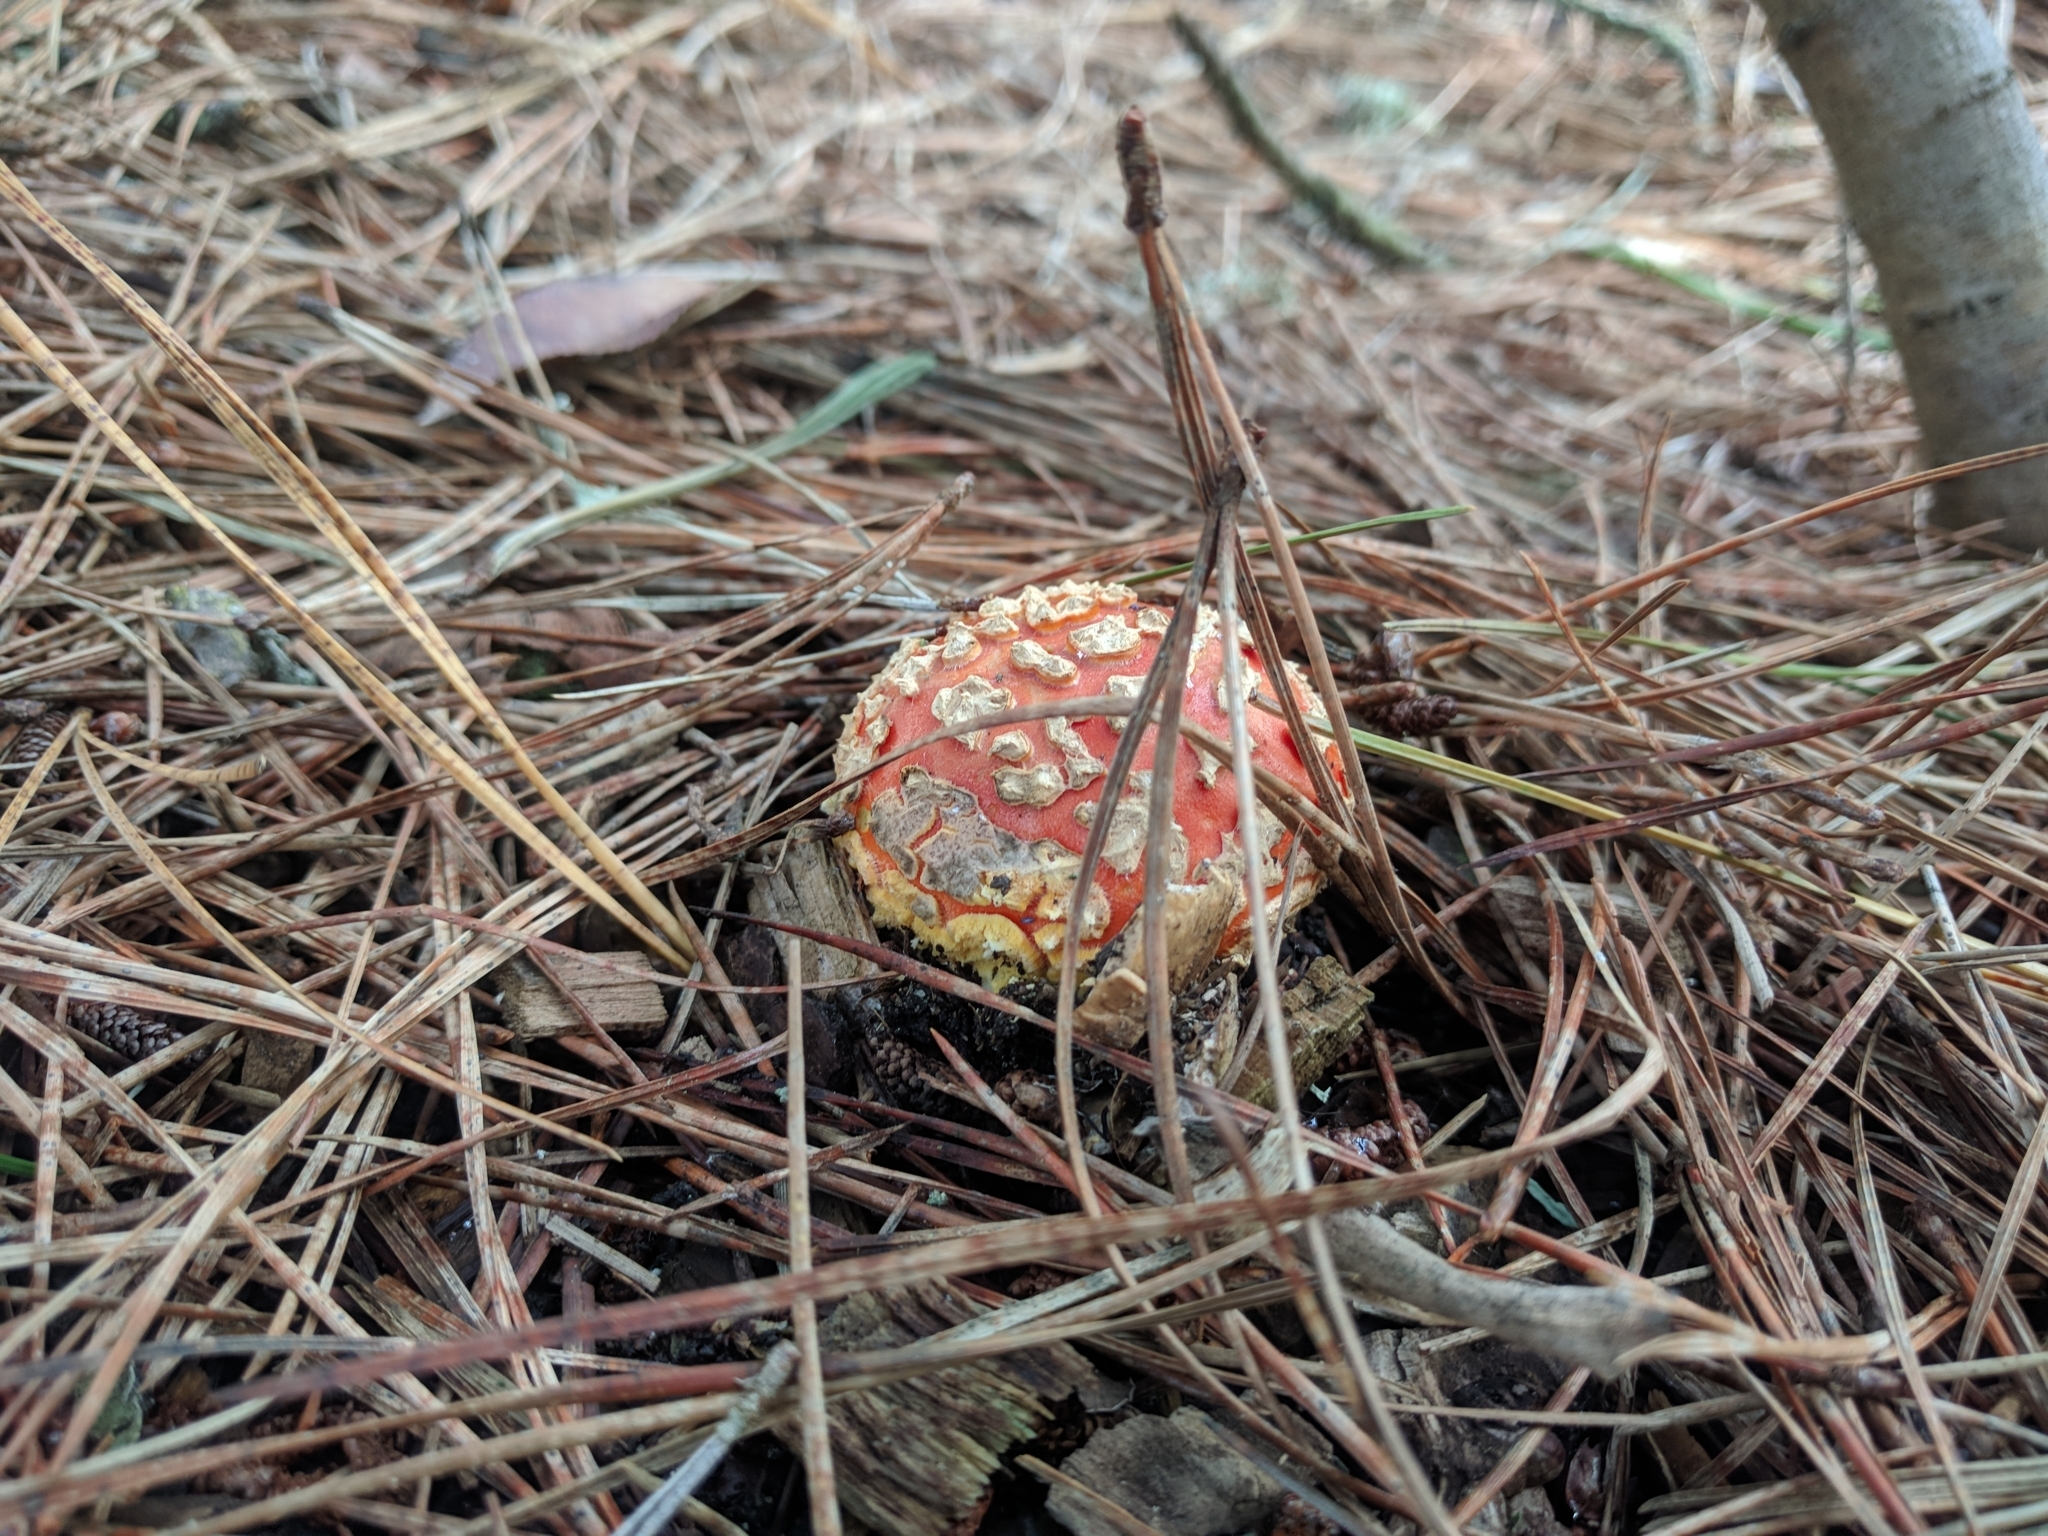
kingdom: Fungi
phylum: Basidiomycota
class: Agaricomycetes
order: Agaricales
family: Amanitaceae
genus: Amanita
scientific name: Amanita muscaria
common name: Fly agaric
